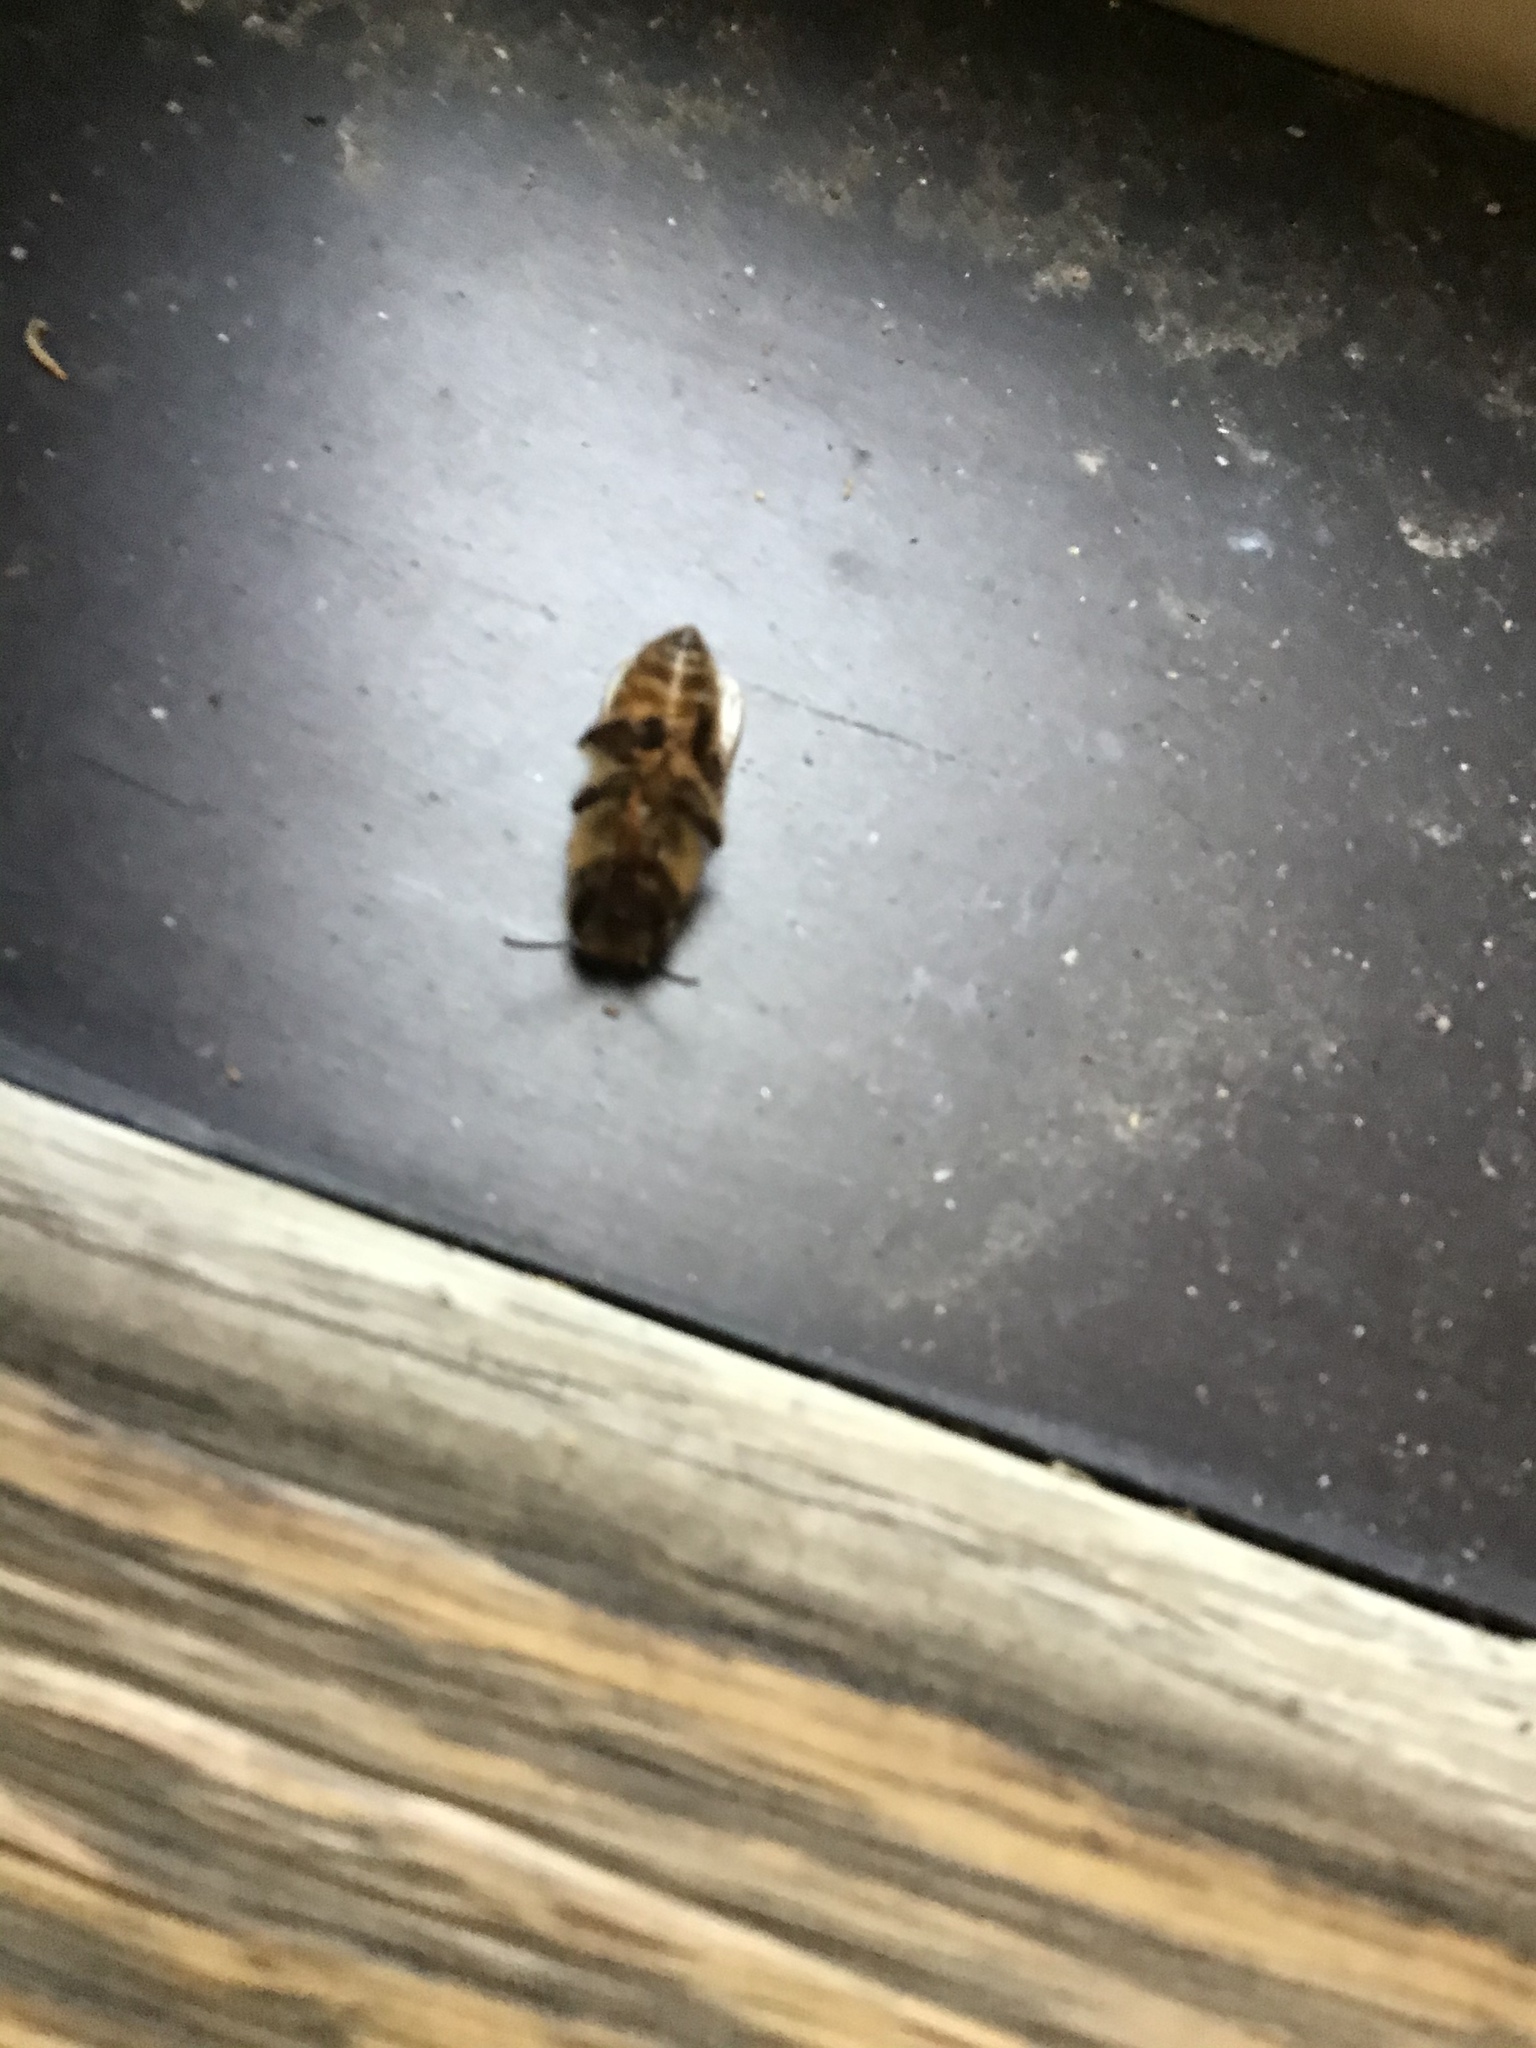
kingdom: Animalia
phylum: Arthropoda
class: Insecta
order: Hymenoptera
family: Apidae
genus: Apis
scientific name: Apis mellifera
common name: Honey bee
